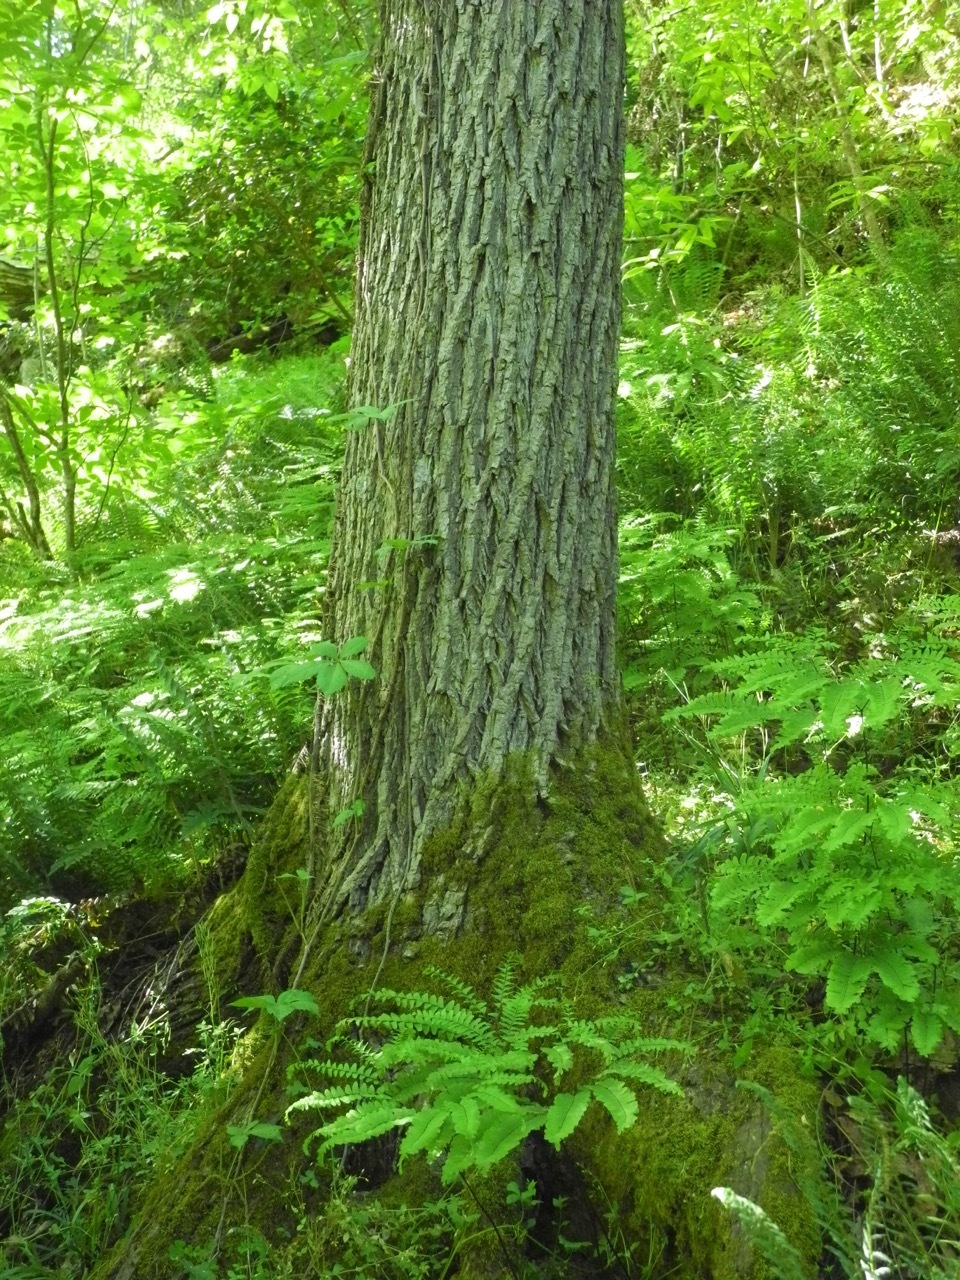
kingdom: Plantae
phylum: Tracheophyta
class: Magnoliopsida
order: Lamiales
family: Oleaceae
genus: Fraxinus
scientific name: Fraxinus pennsylvanica
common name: Green ash
